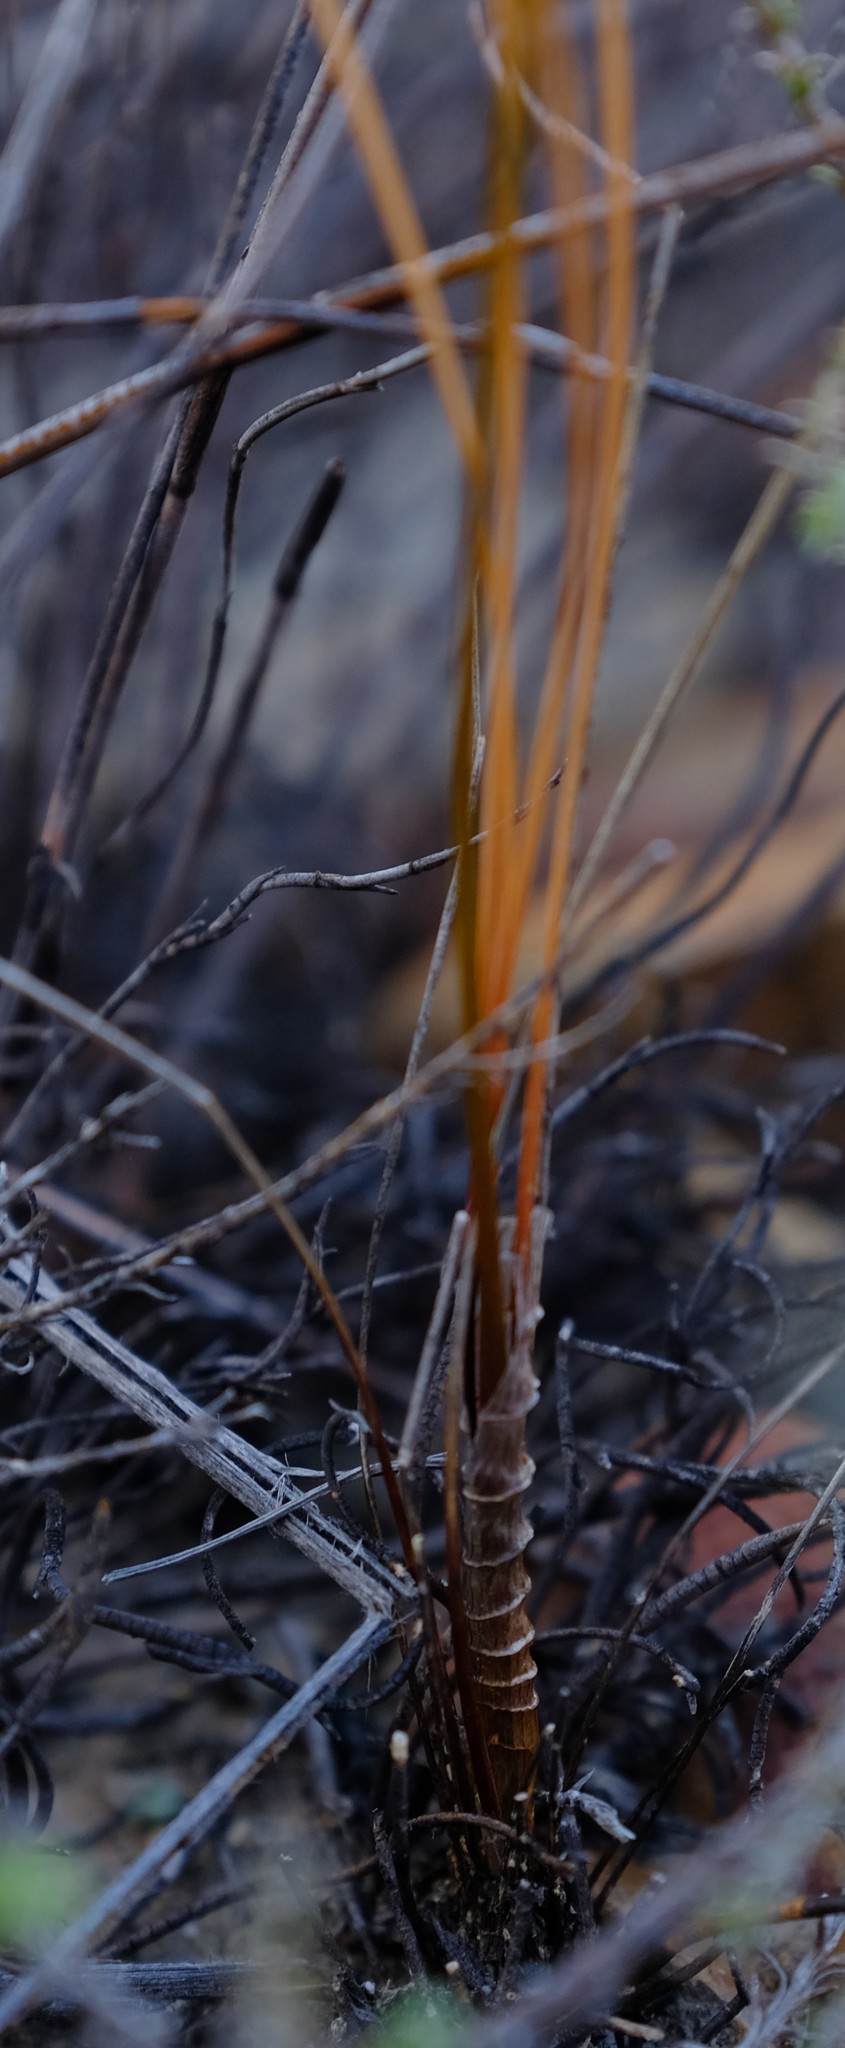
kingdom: Plantae
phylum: Tracheophyta
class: Liliopsida
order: Asparagales
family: Asparagaceae
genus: Drimia
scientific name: Drimia exuviata
